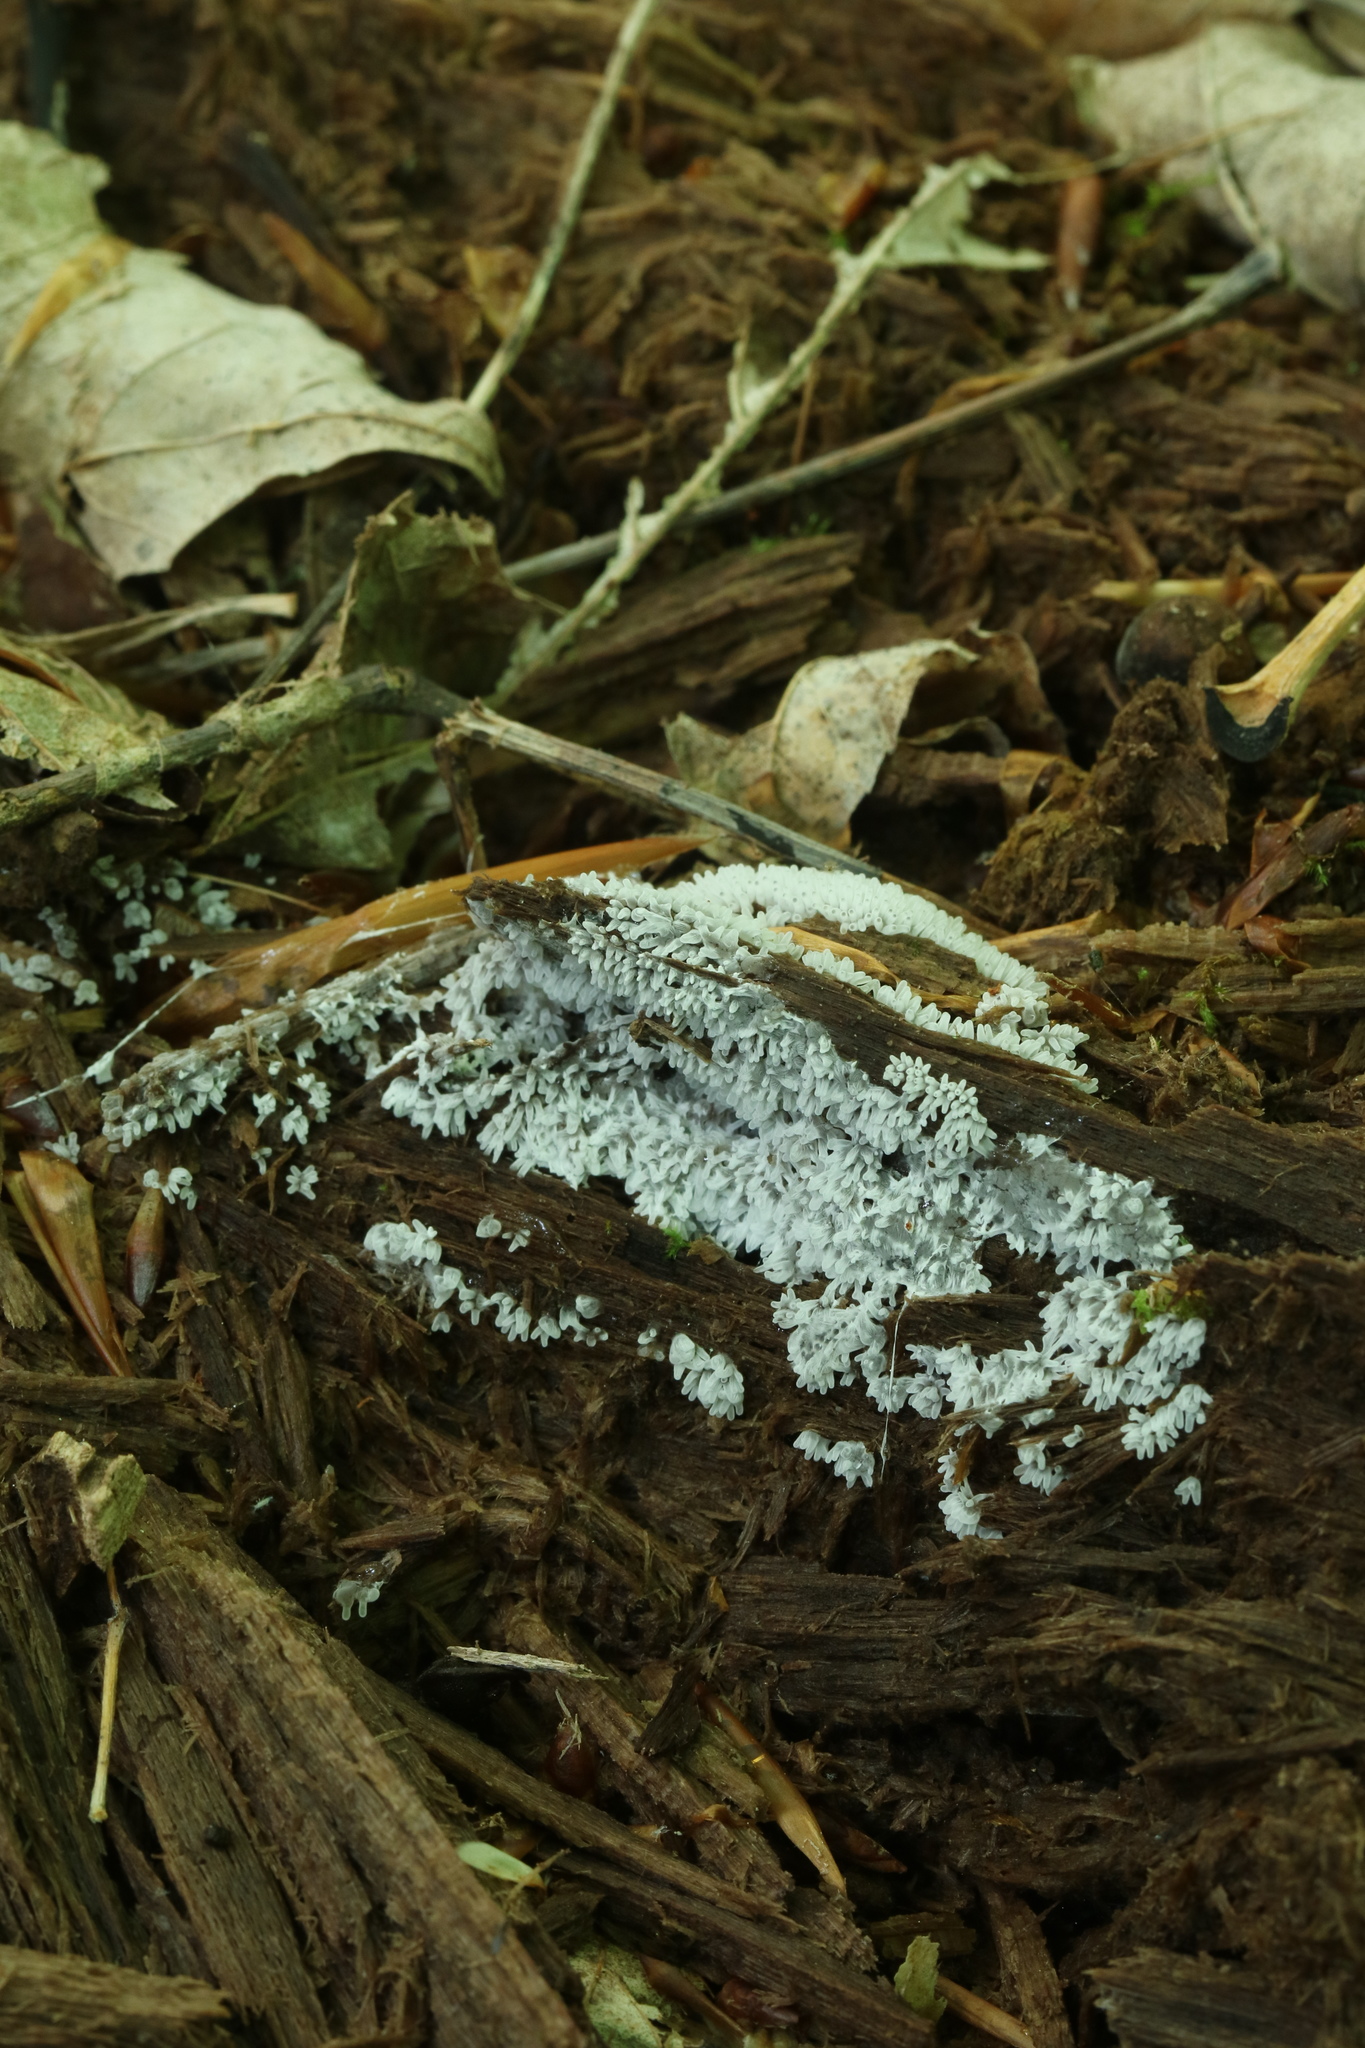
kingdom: Protozoa
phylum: Mycetozoa
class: Protosteliomycetes
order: Ceratiomyxales
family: Ceratiomyxaceae
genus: Ceratiomyxa
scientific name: Ceratiomyxa fruticulosa
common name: Honeycomb coral slime mold
